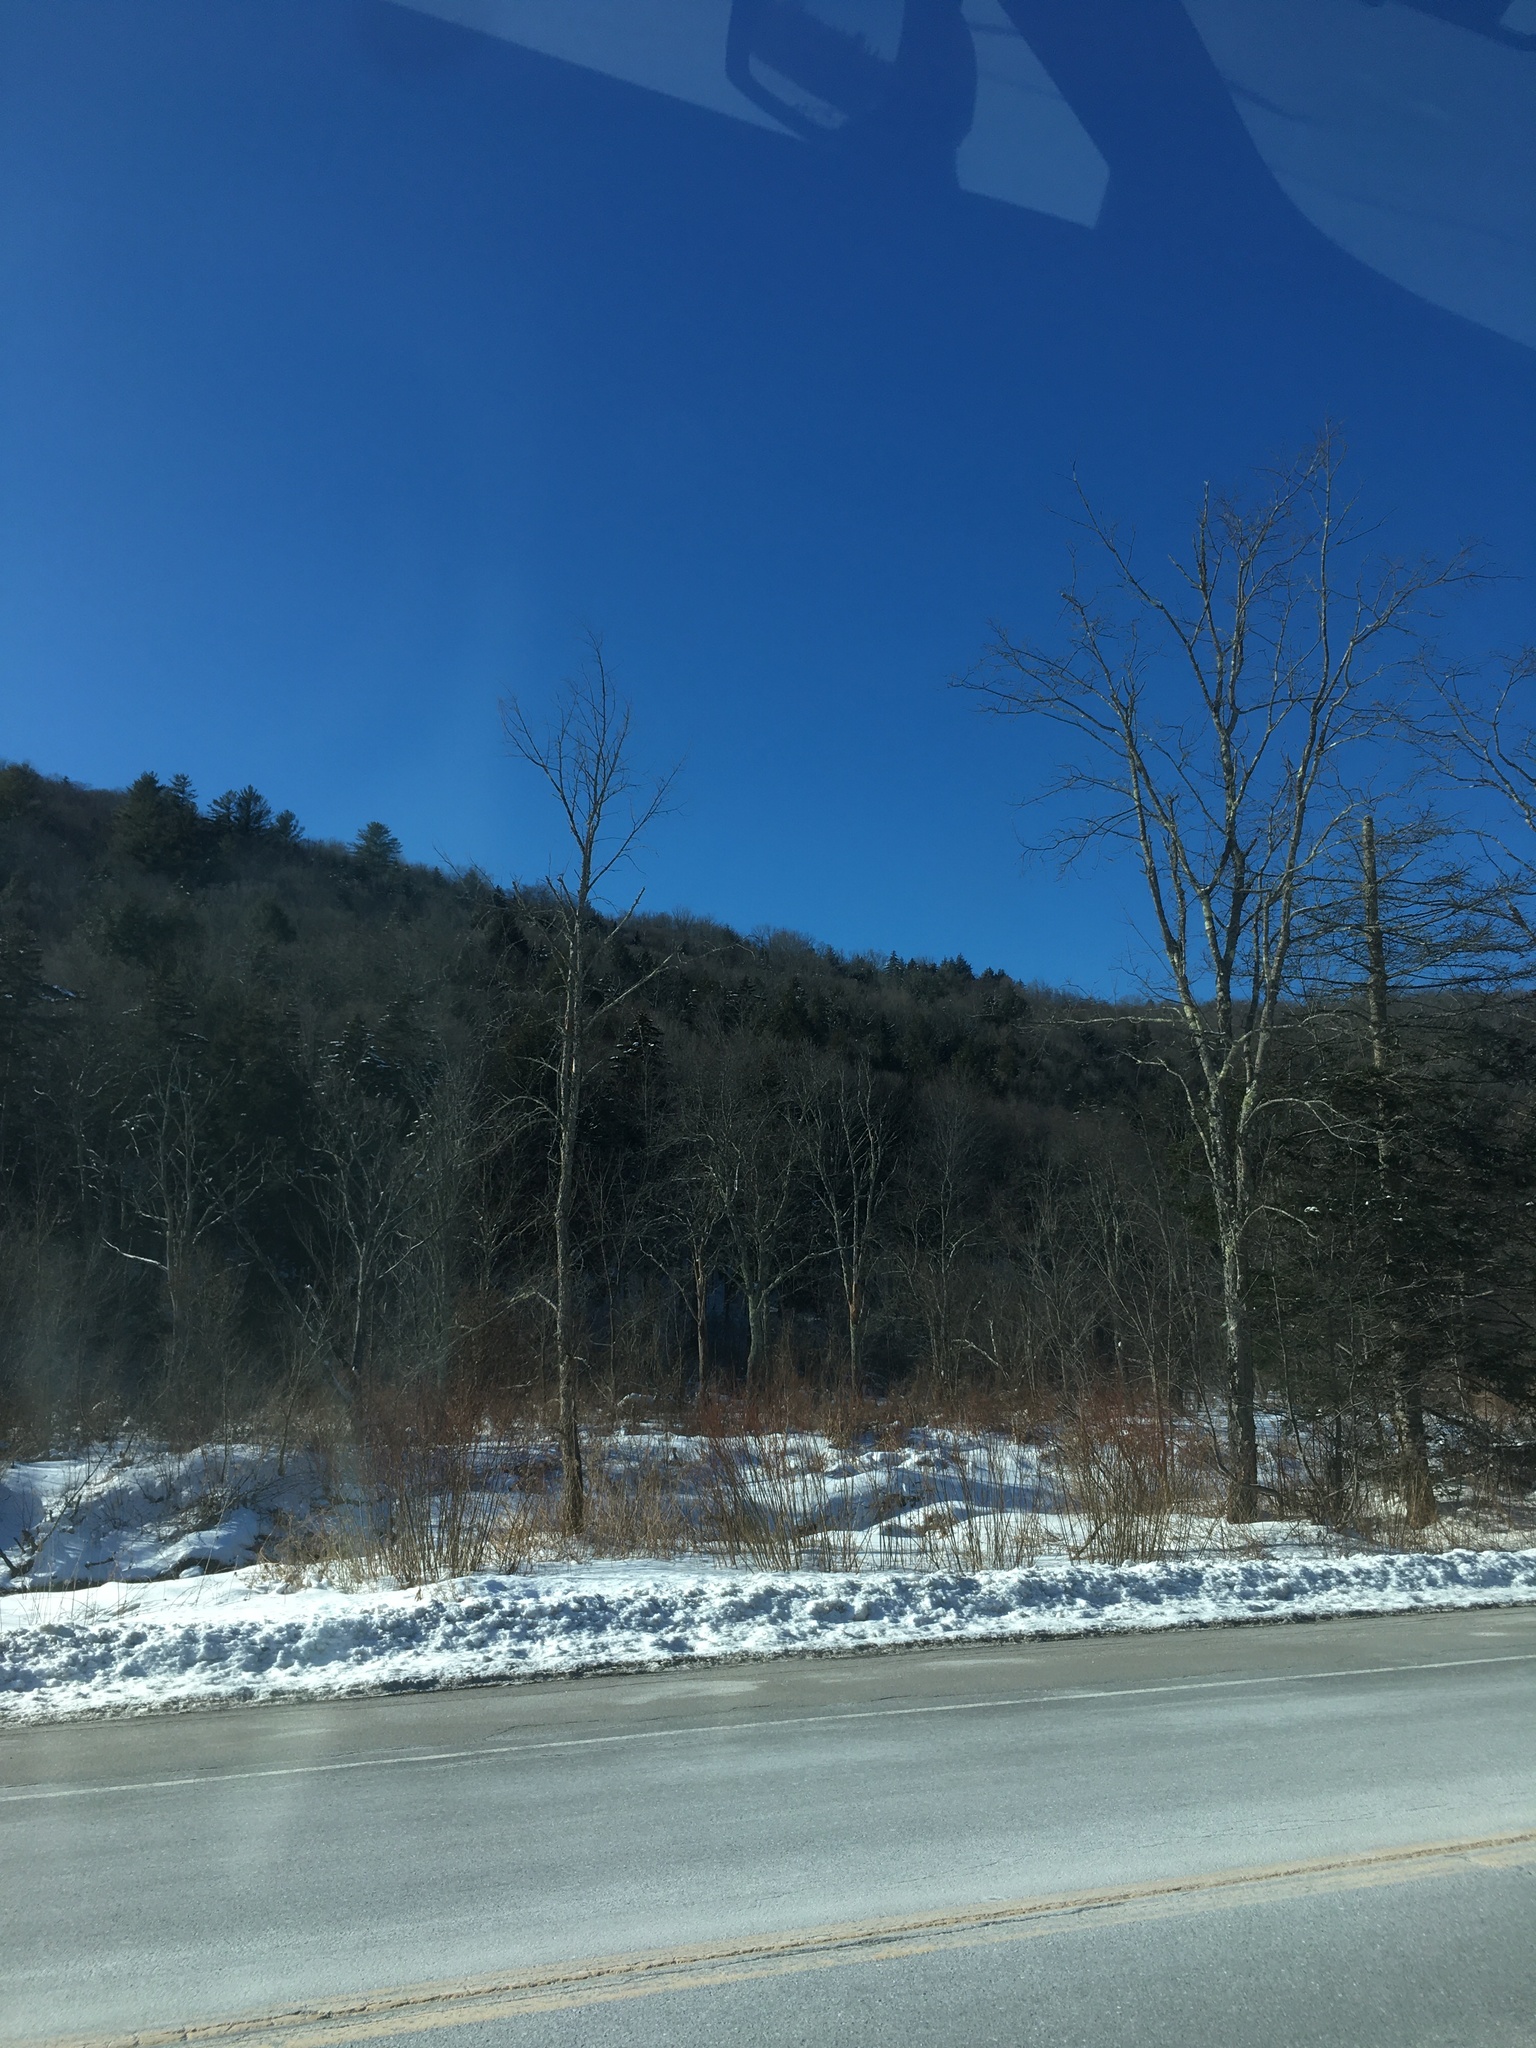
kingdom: Plantae
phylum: Tracheophyta
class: Magnoliopsida
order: Rosales
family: Ulmaceae
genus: Ulmus
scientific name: Ulmus americana
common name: American elm
